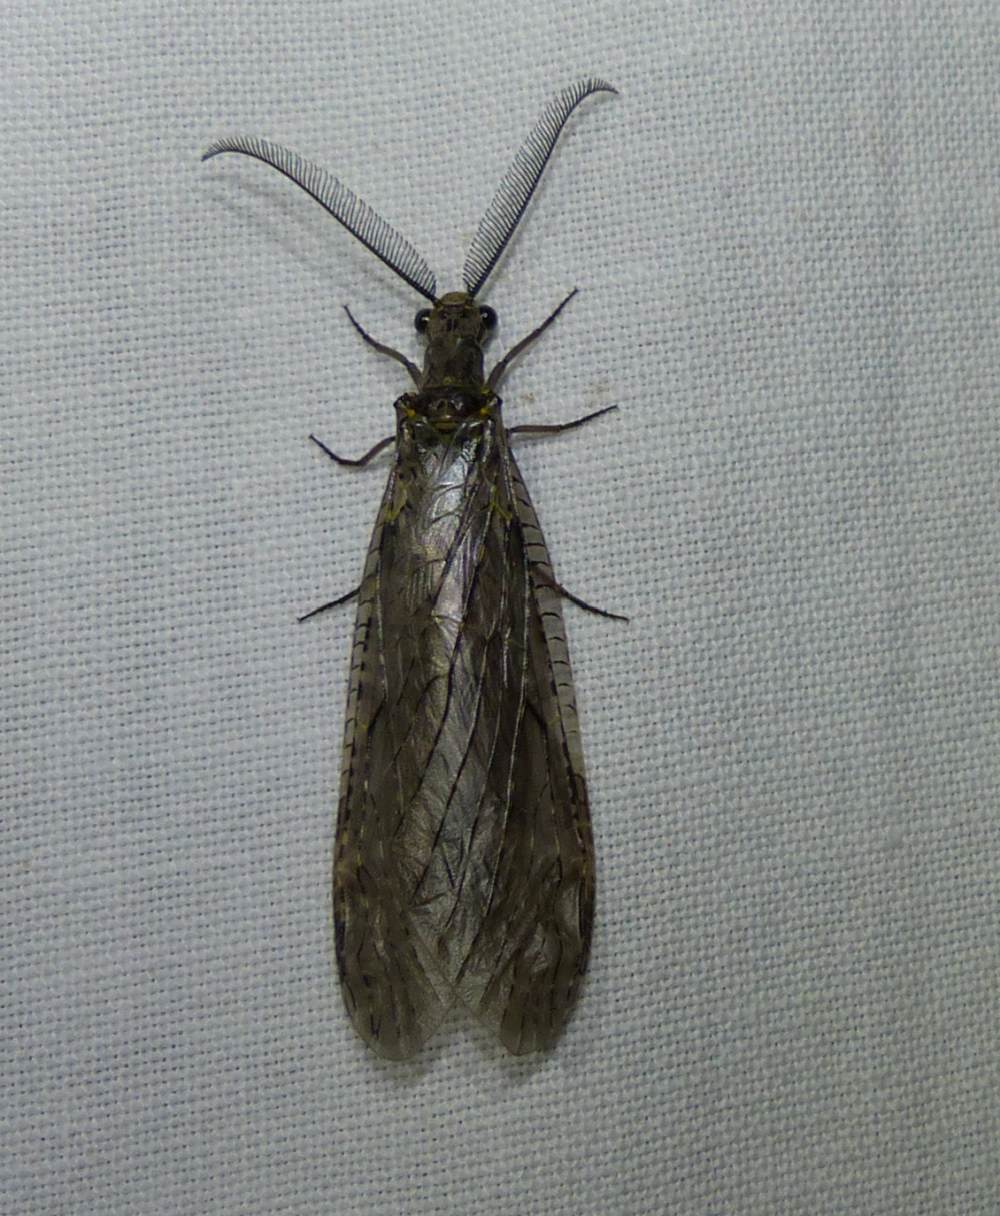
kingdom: Animalia
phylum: Arthropoda
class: Insecta
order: Megaloptera
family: Corydalidae
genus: Chauliodes
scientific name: Chauliodes rastricornis
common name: Spring fishfly
